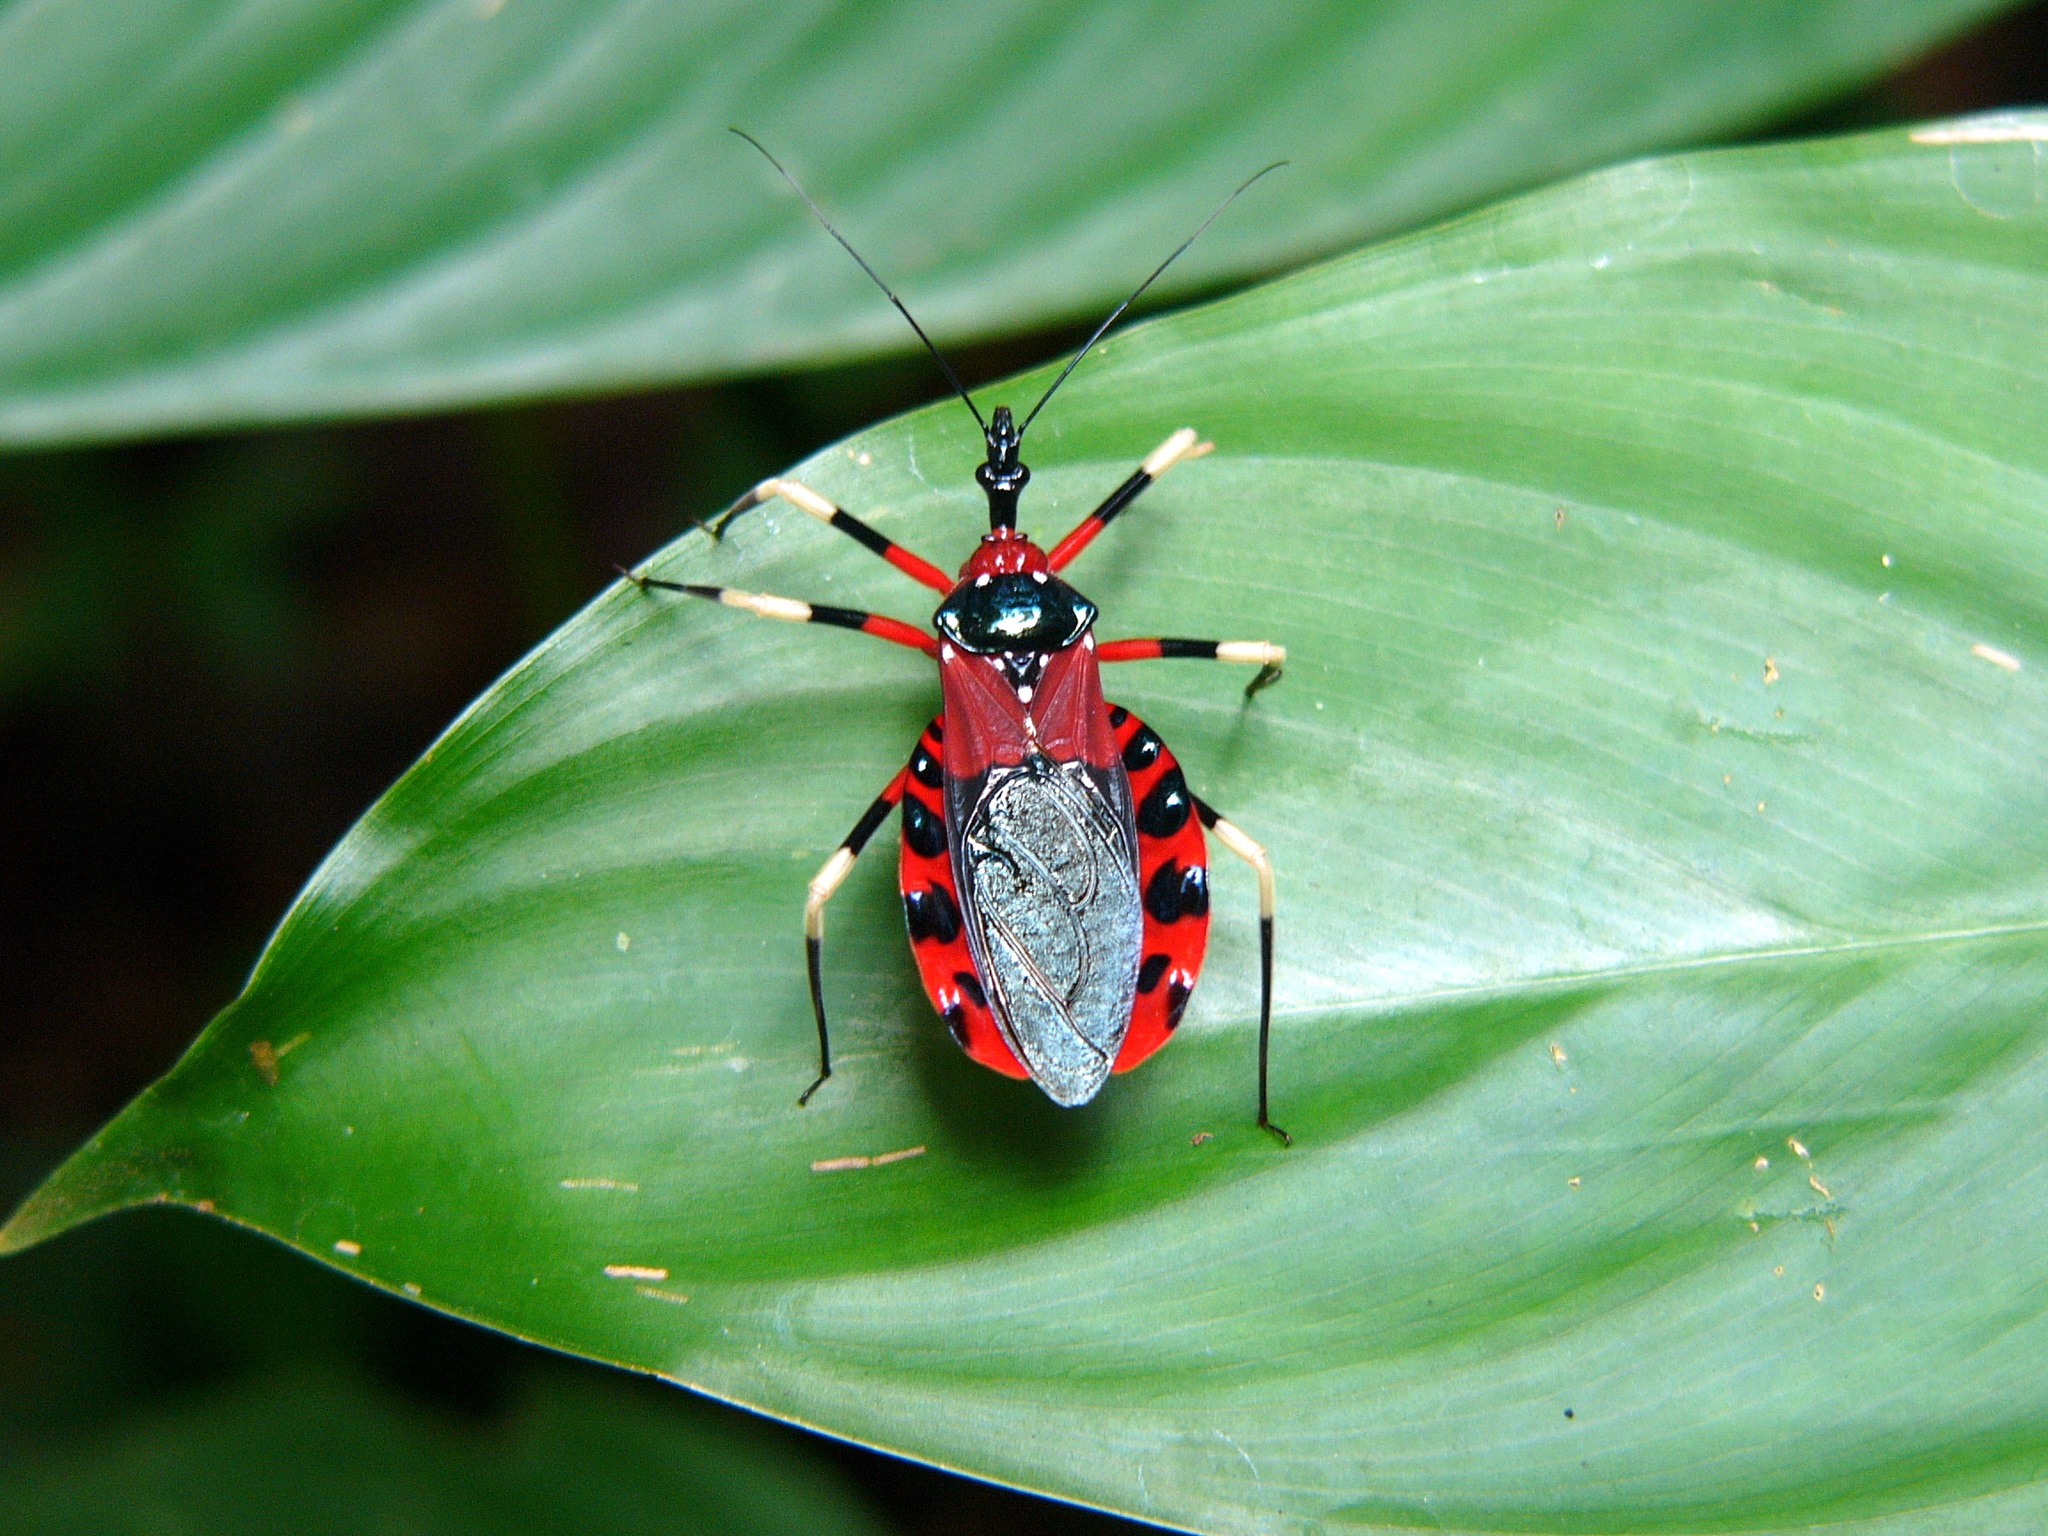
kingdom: Animalia
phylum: Arthropoda
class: Insecta
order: Hemiptera
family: Reduviidae
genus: Eulyes
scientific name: Eulyes preciosa
